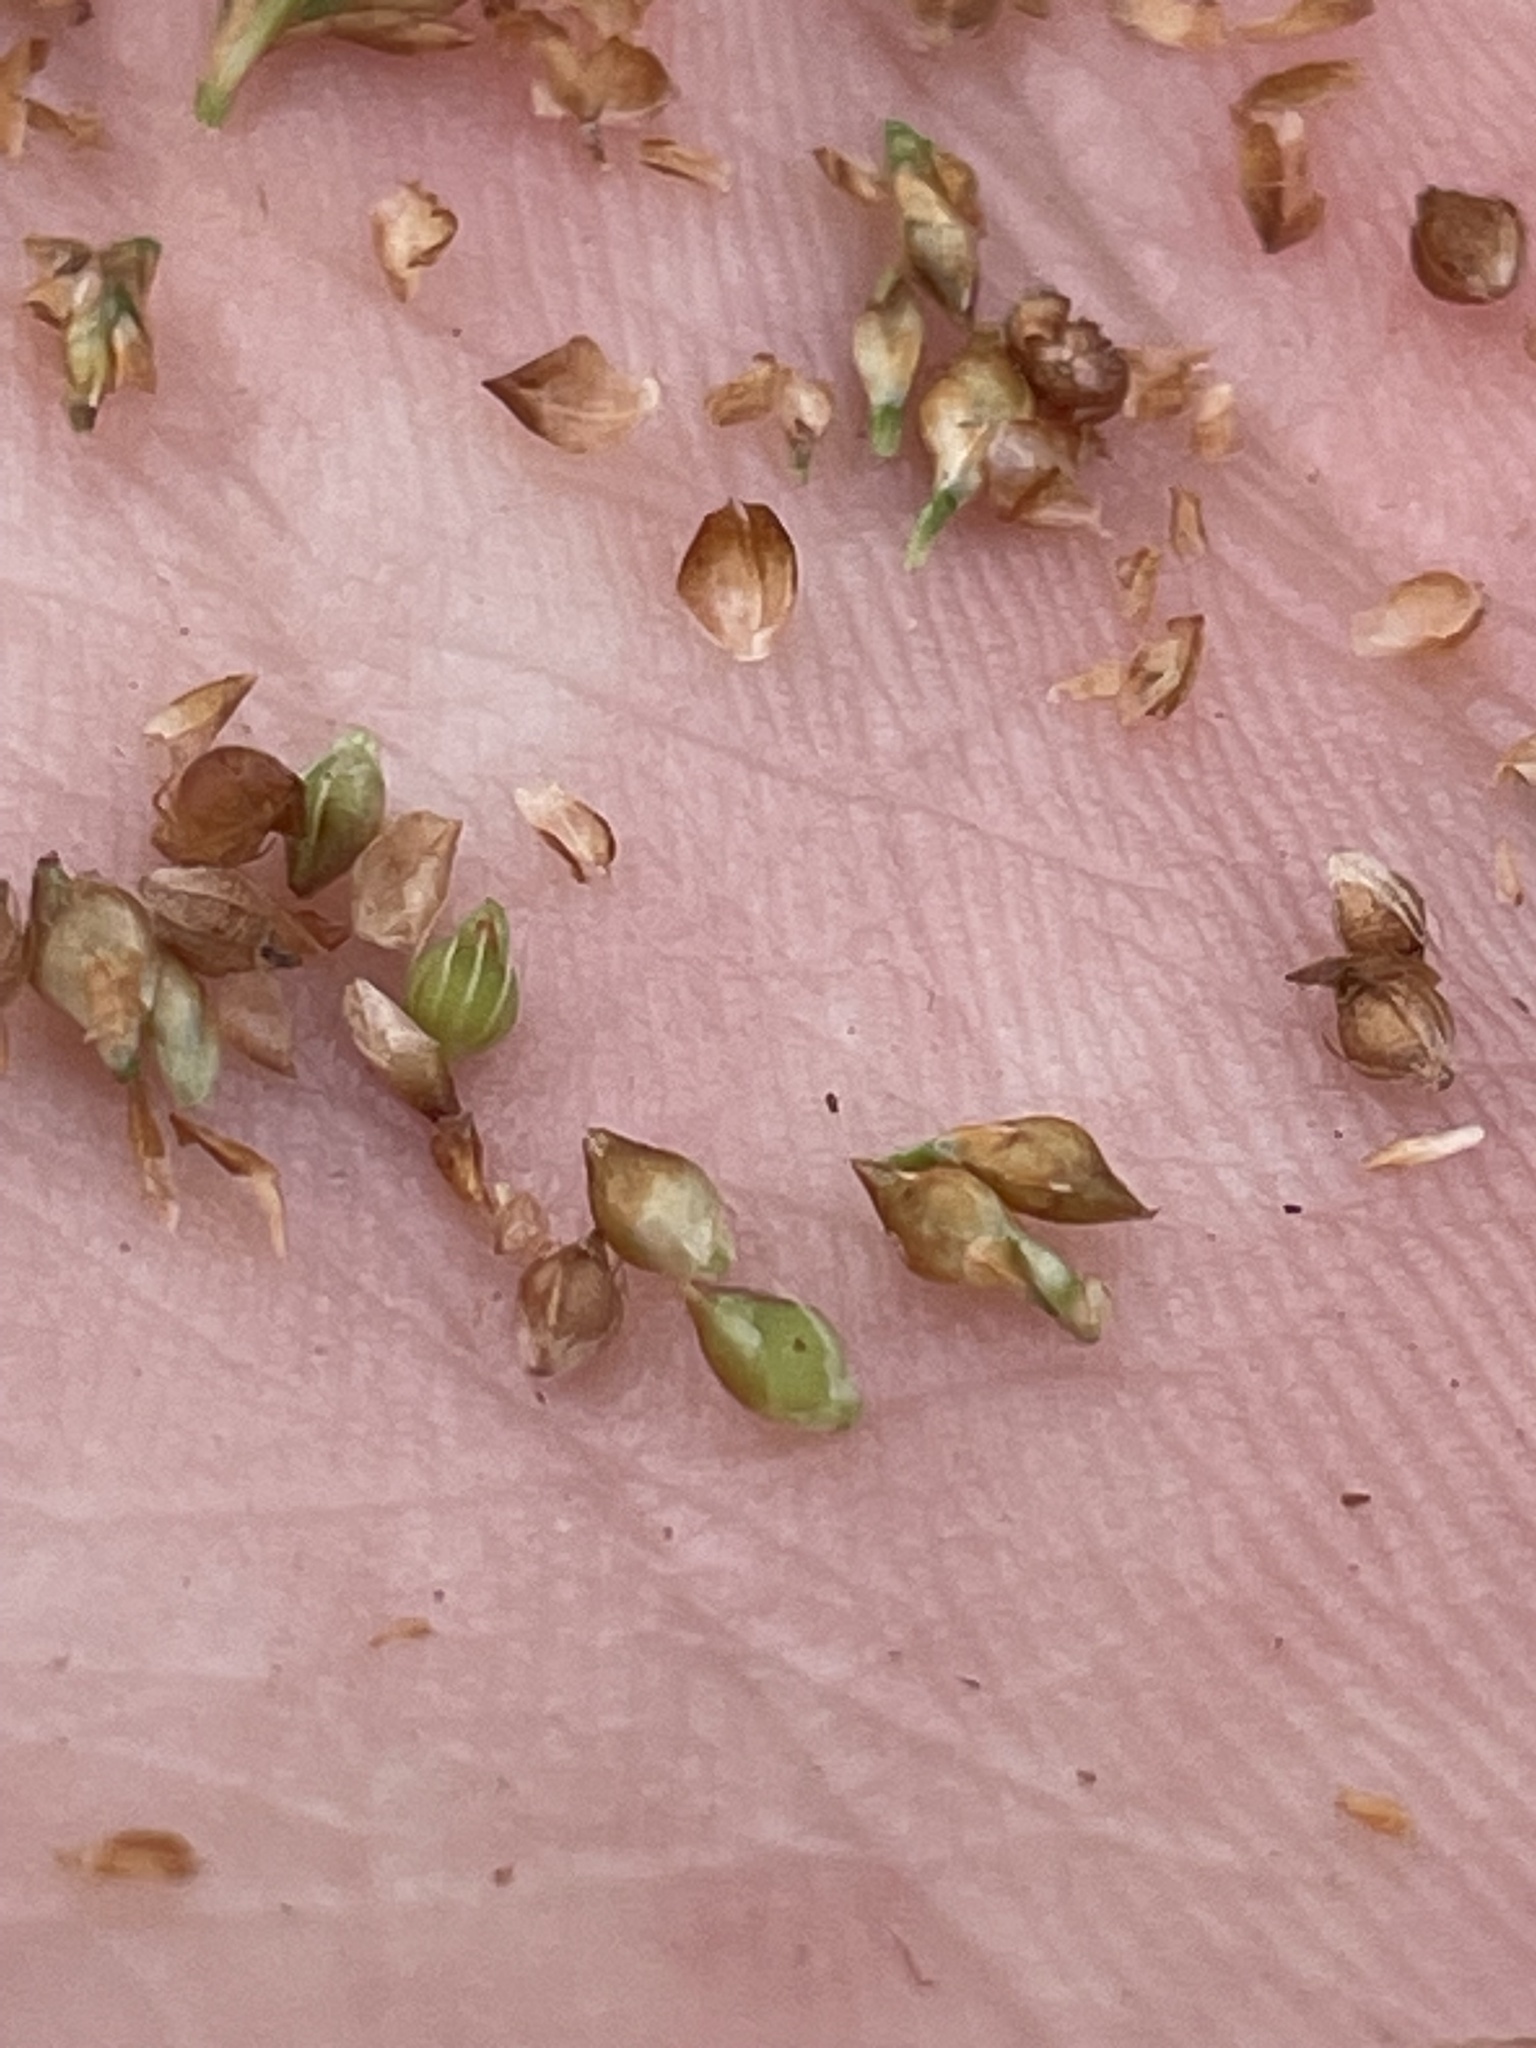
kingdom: Plantae
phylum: Tracheophyta
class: Liliopsida
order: Poales
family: Cyperaceae
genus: Rhynchospora
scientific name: Rhynchospora plumosa
